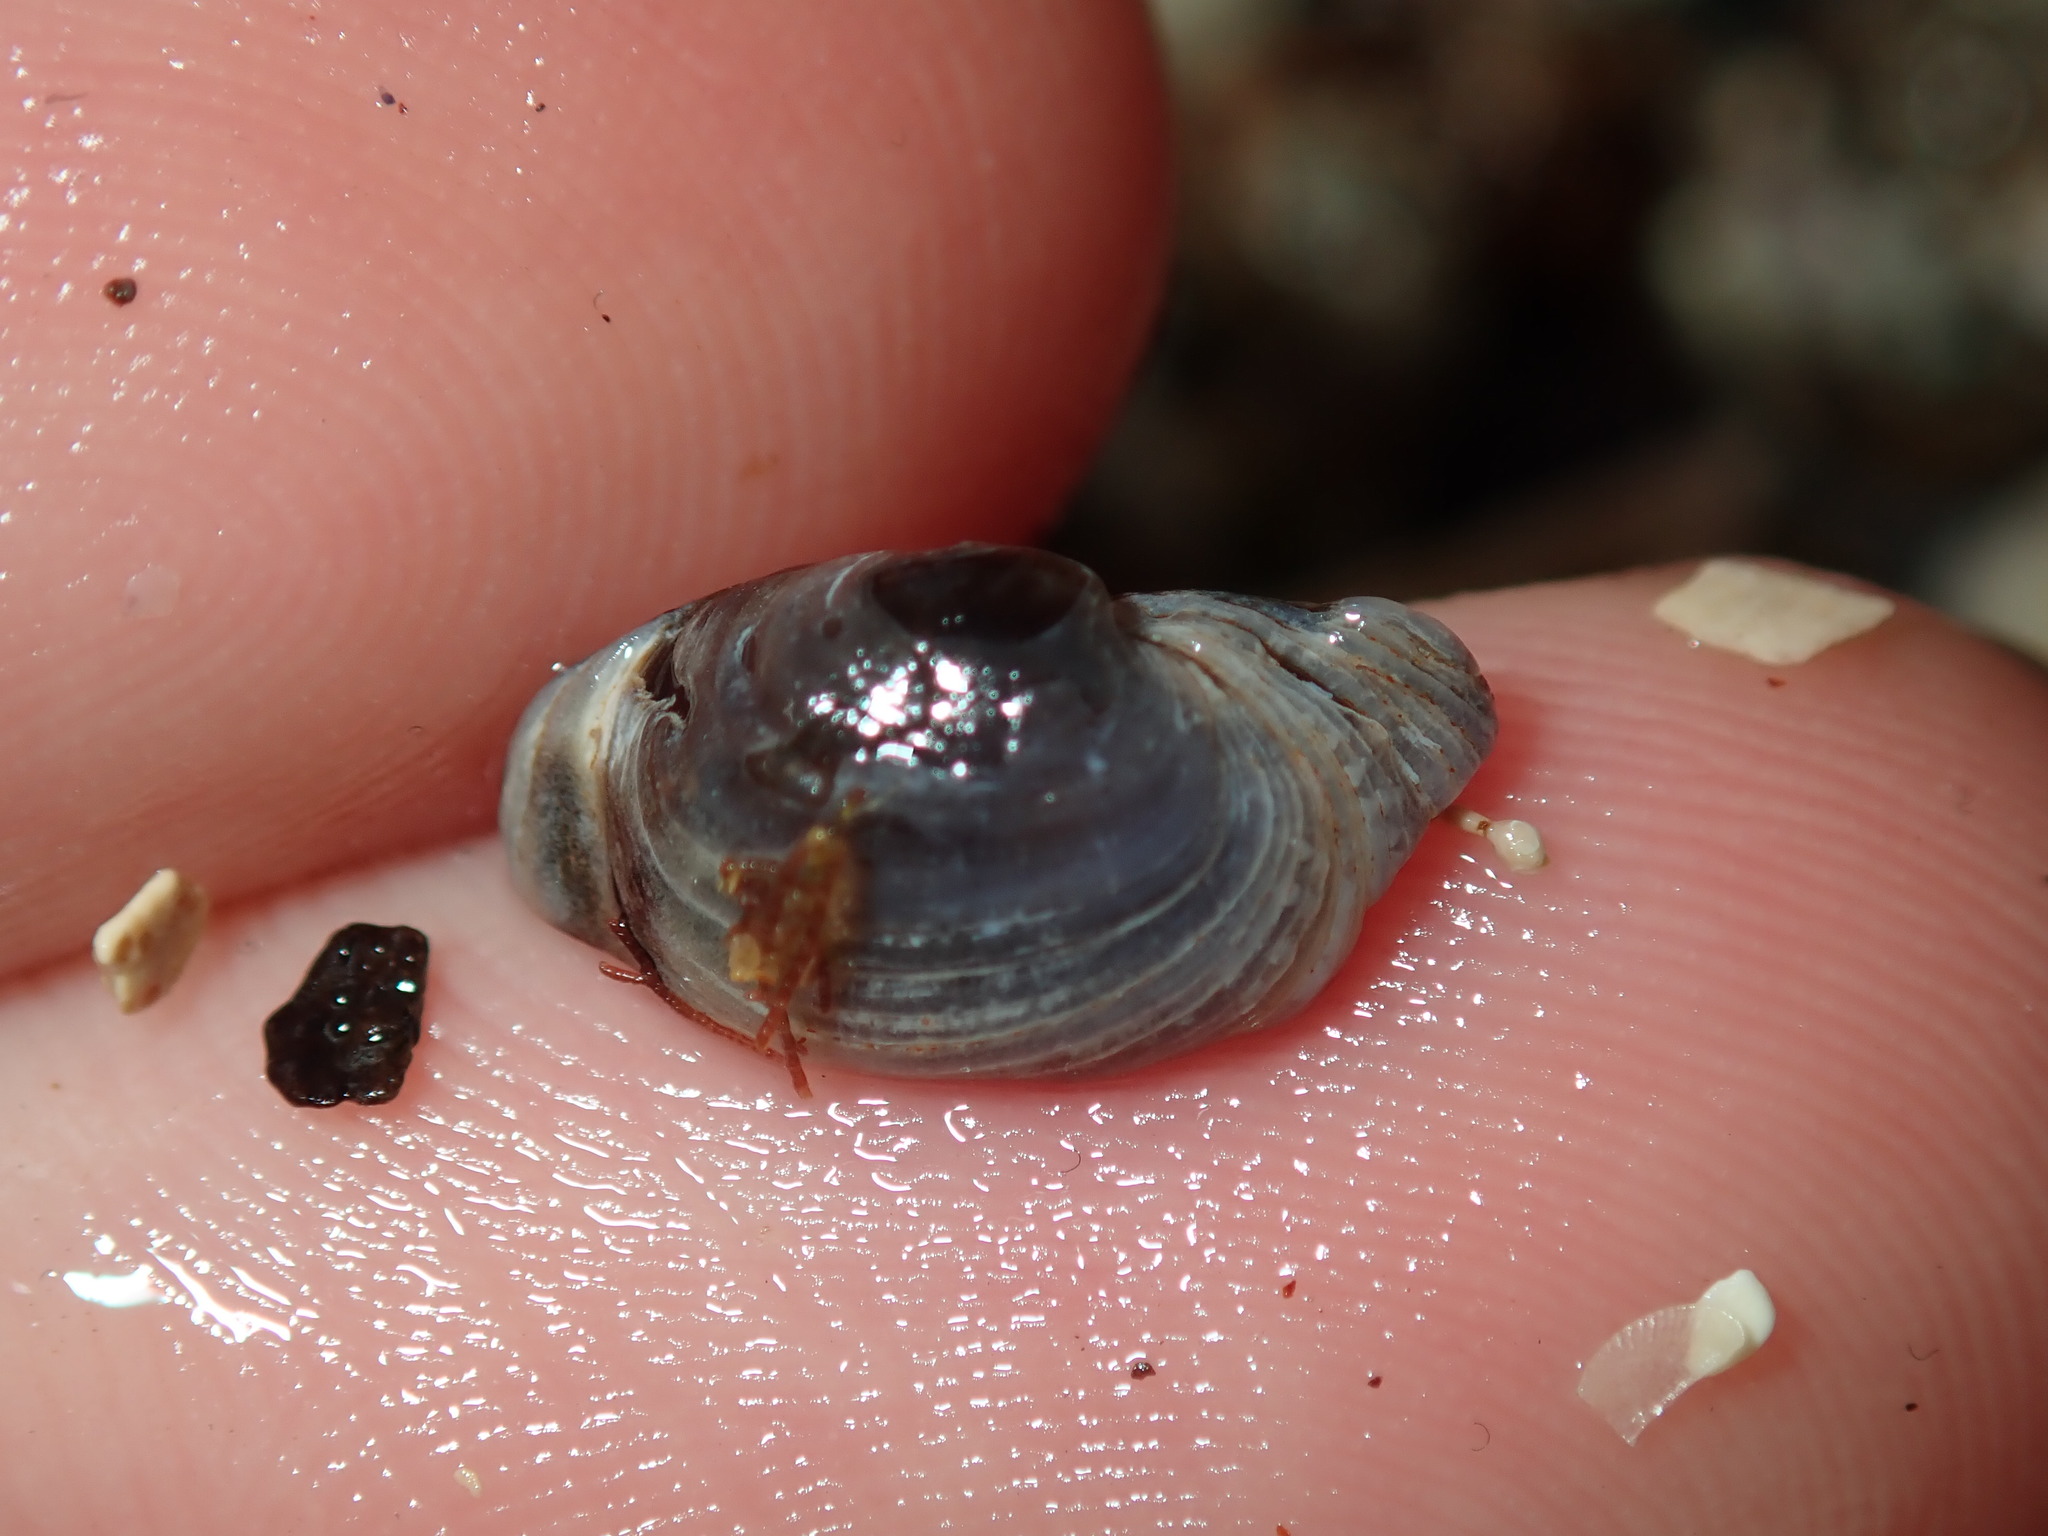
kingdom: Animalia
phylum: Mollusca
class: Bivalvia
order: Venerida
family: Veneridae
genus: Irus
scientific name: Irus cumingii
